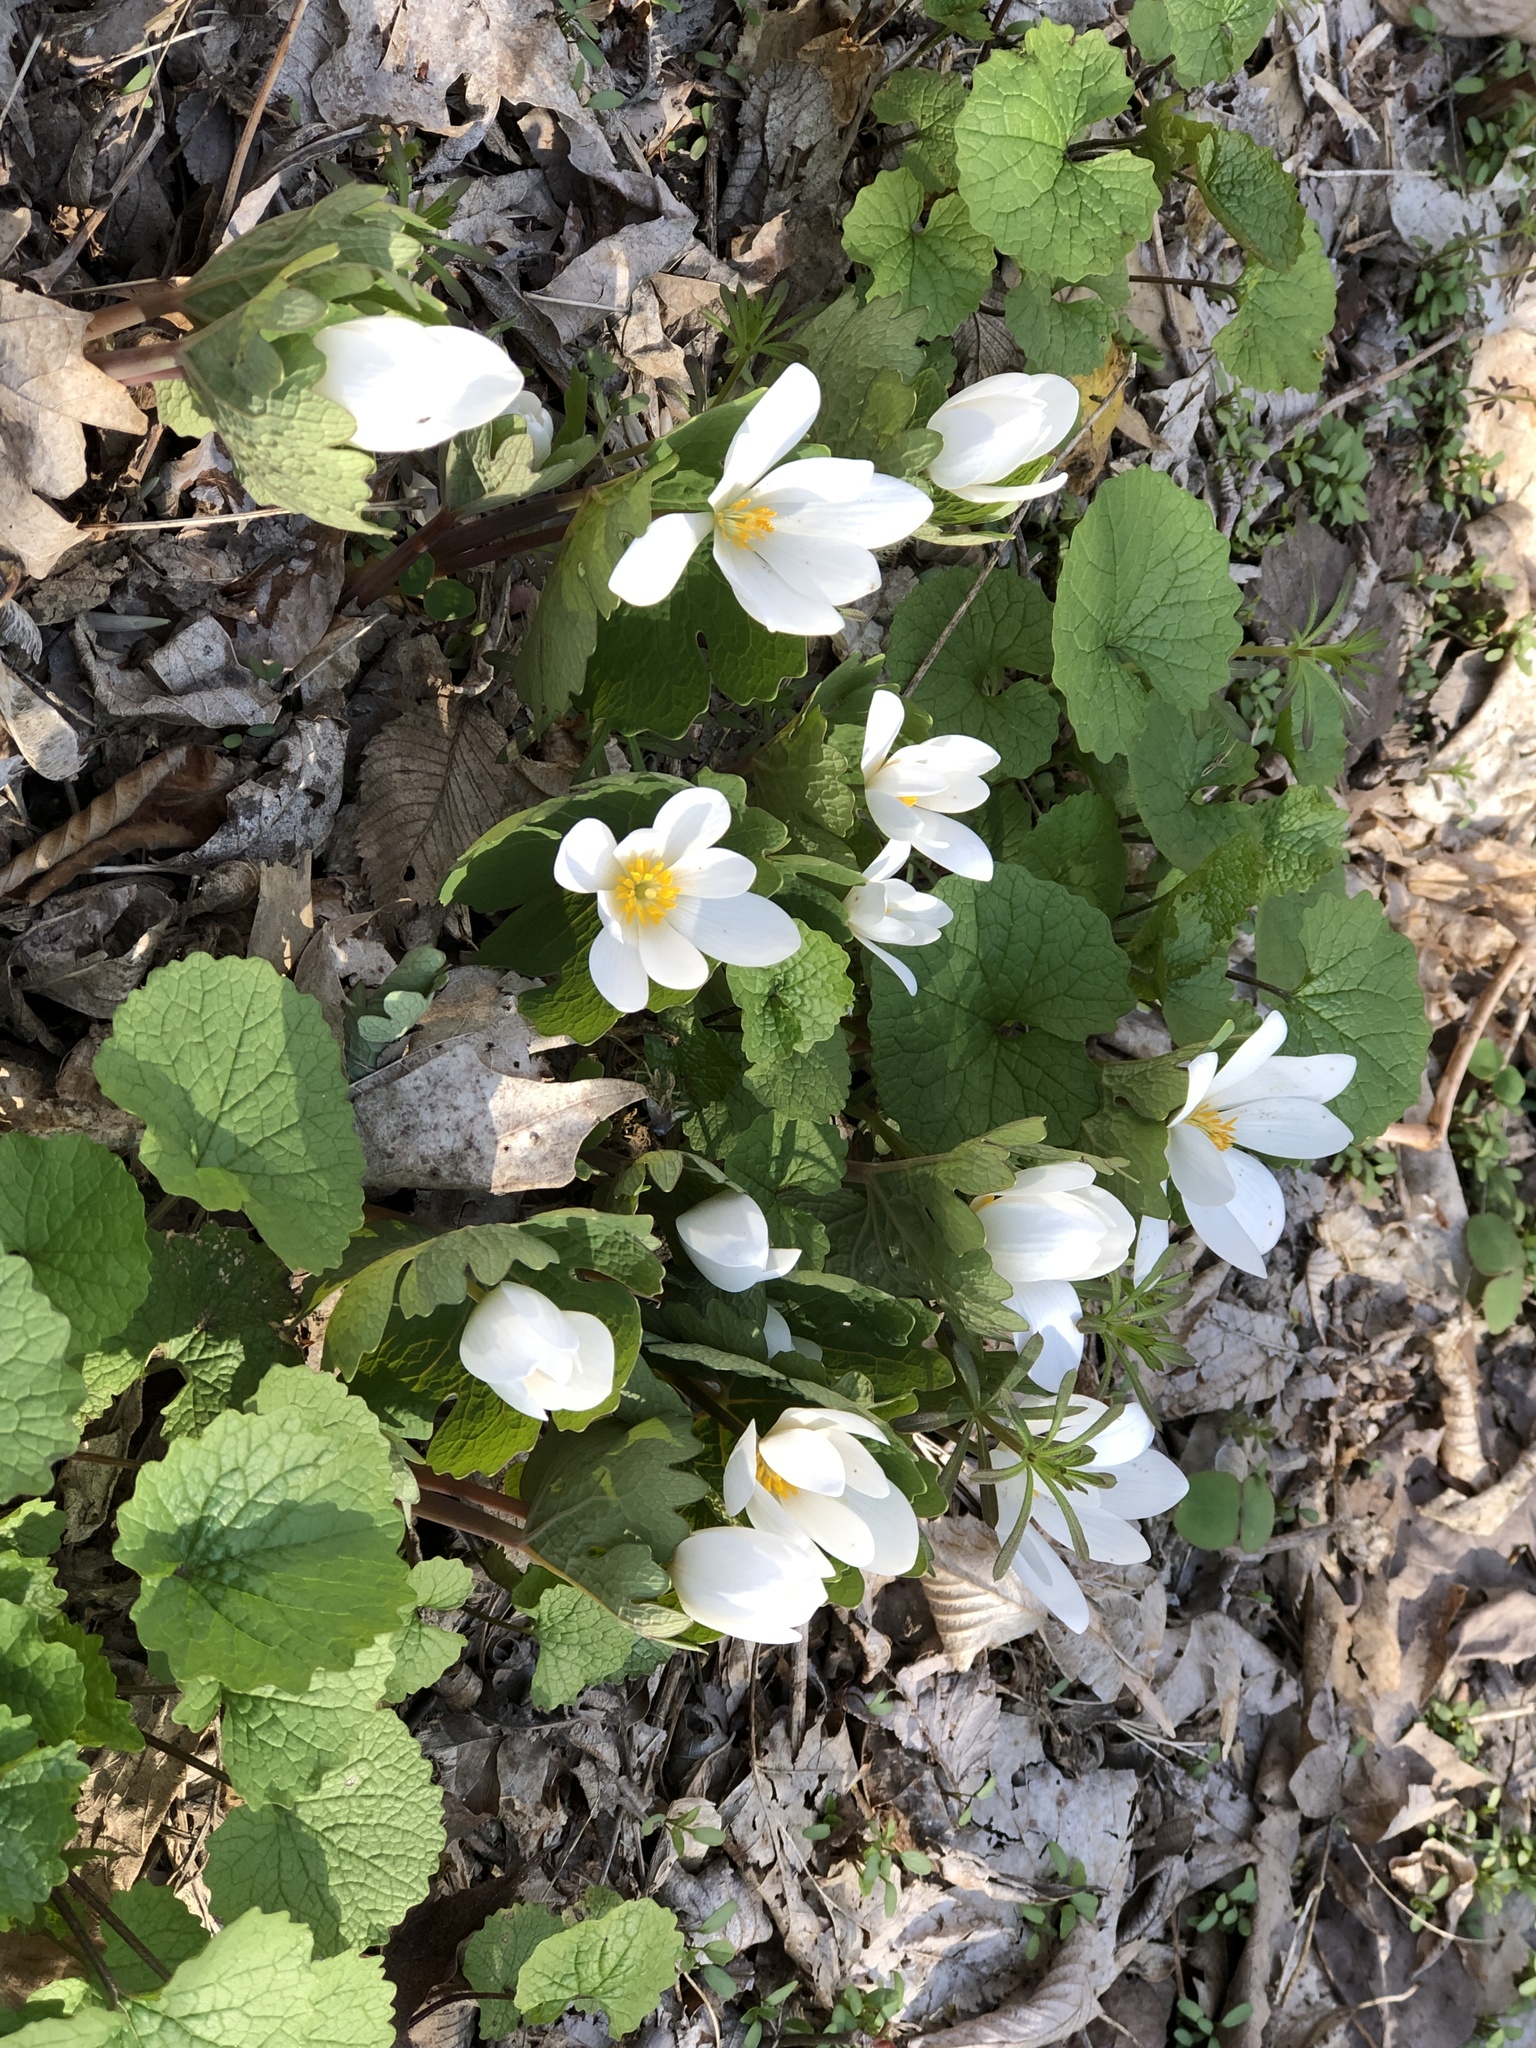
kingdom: Plantae
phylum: Tracheophyta
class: Magnoliopsida
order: Ranunculales
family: Papaveraceae
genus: Sanguinaria
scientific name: Sanguinaria canadensis
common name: Bloodroot
